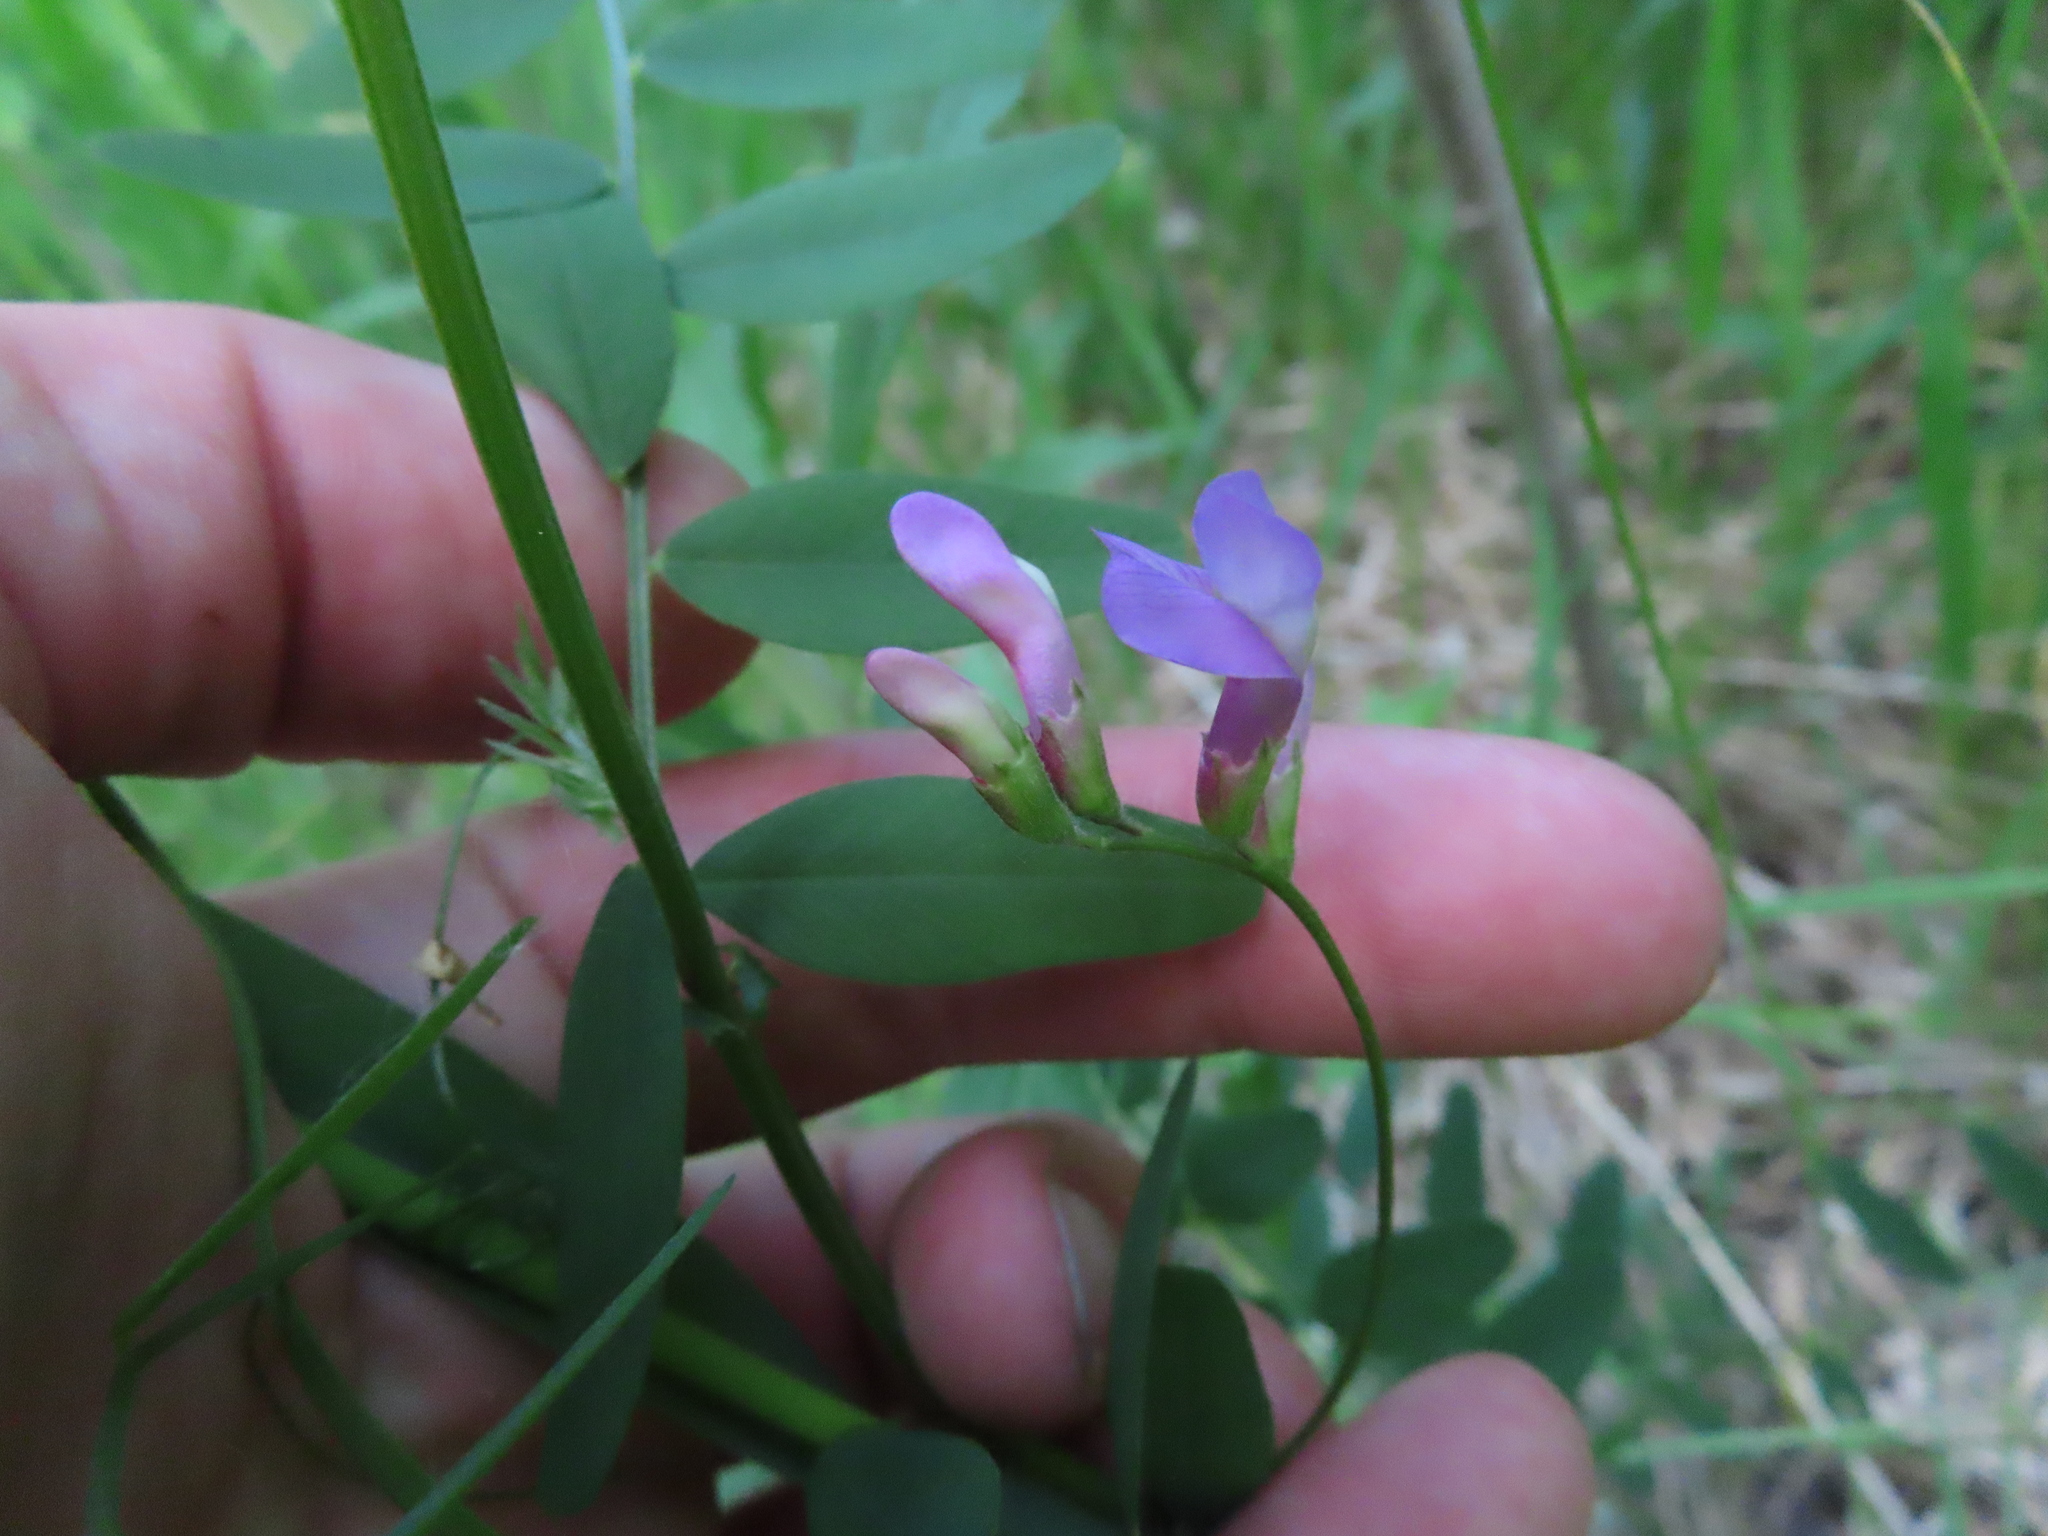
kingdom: Plantae
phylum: Tracheophyta
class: Magnoliopsida
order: Fabales
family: Fabaceae
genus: Vicia
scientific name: Vicia americana
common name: American vetch
